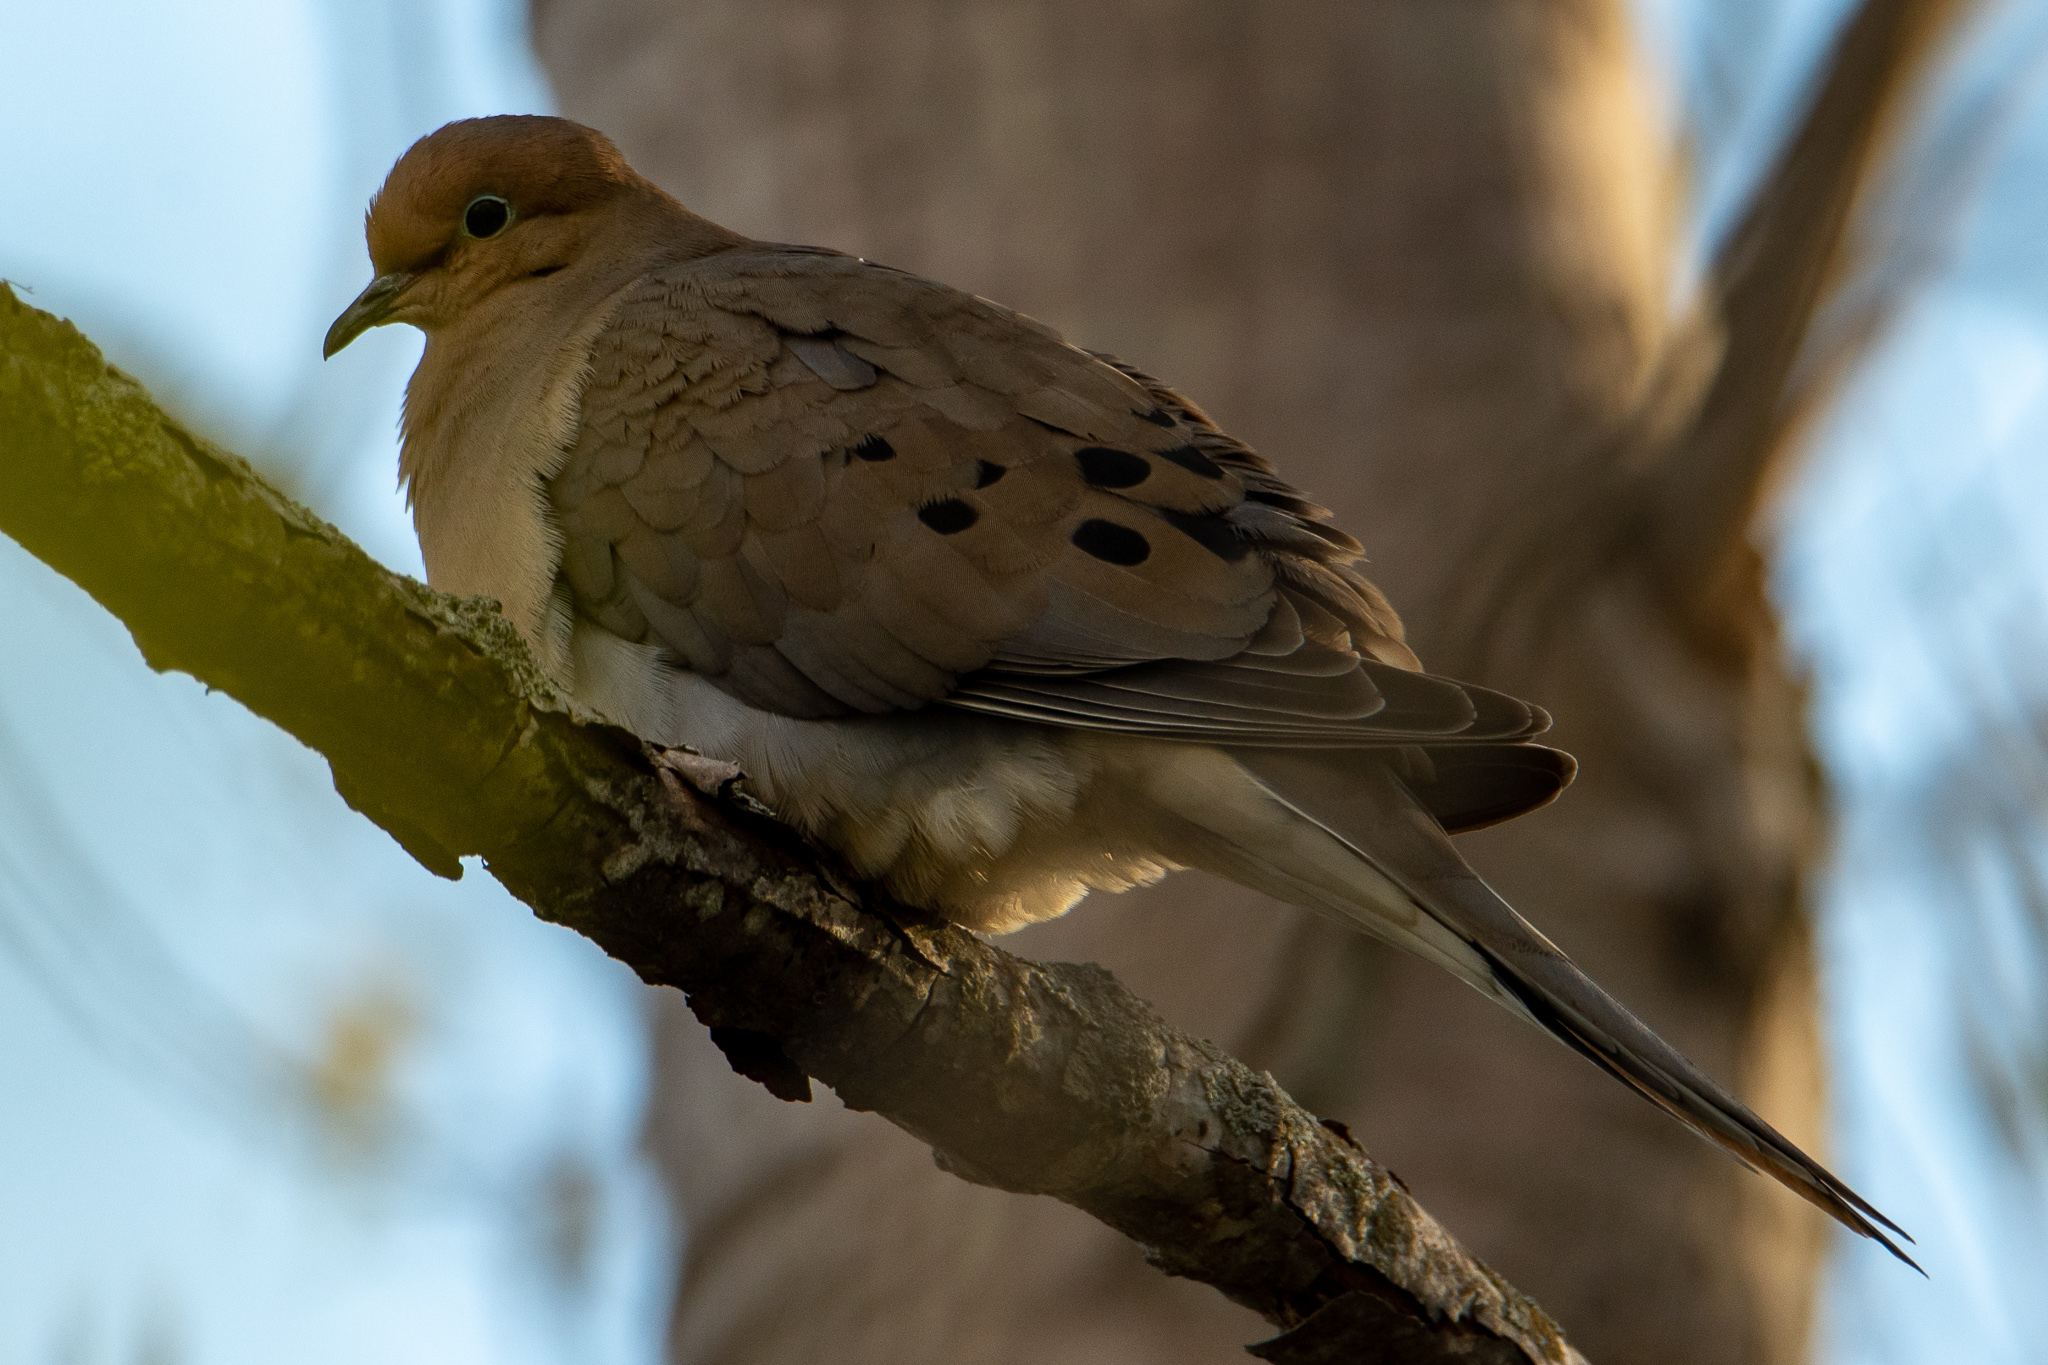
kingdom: Animalia
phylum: Chordata
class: Aves
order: Columbiformes
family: Columbidae
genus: Zenaida
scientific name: Zenaida macroura
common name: Mourning dove
